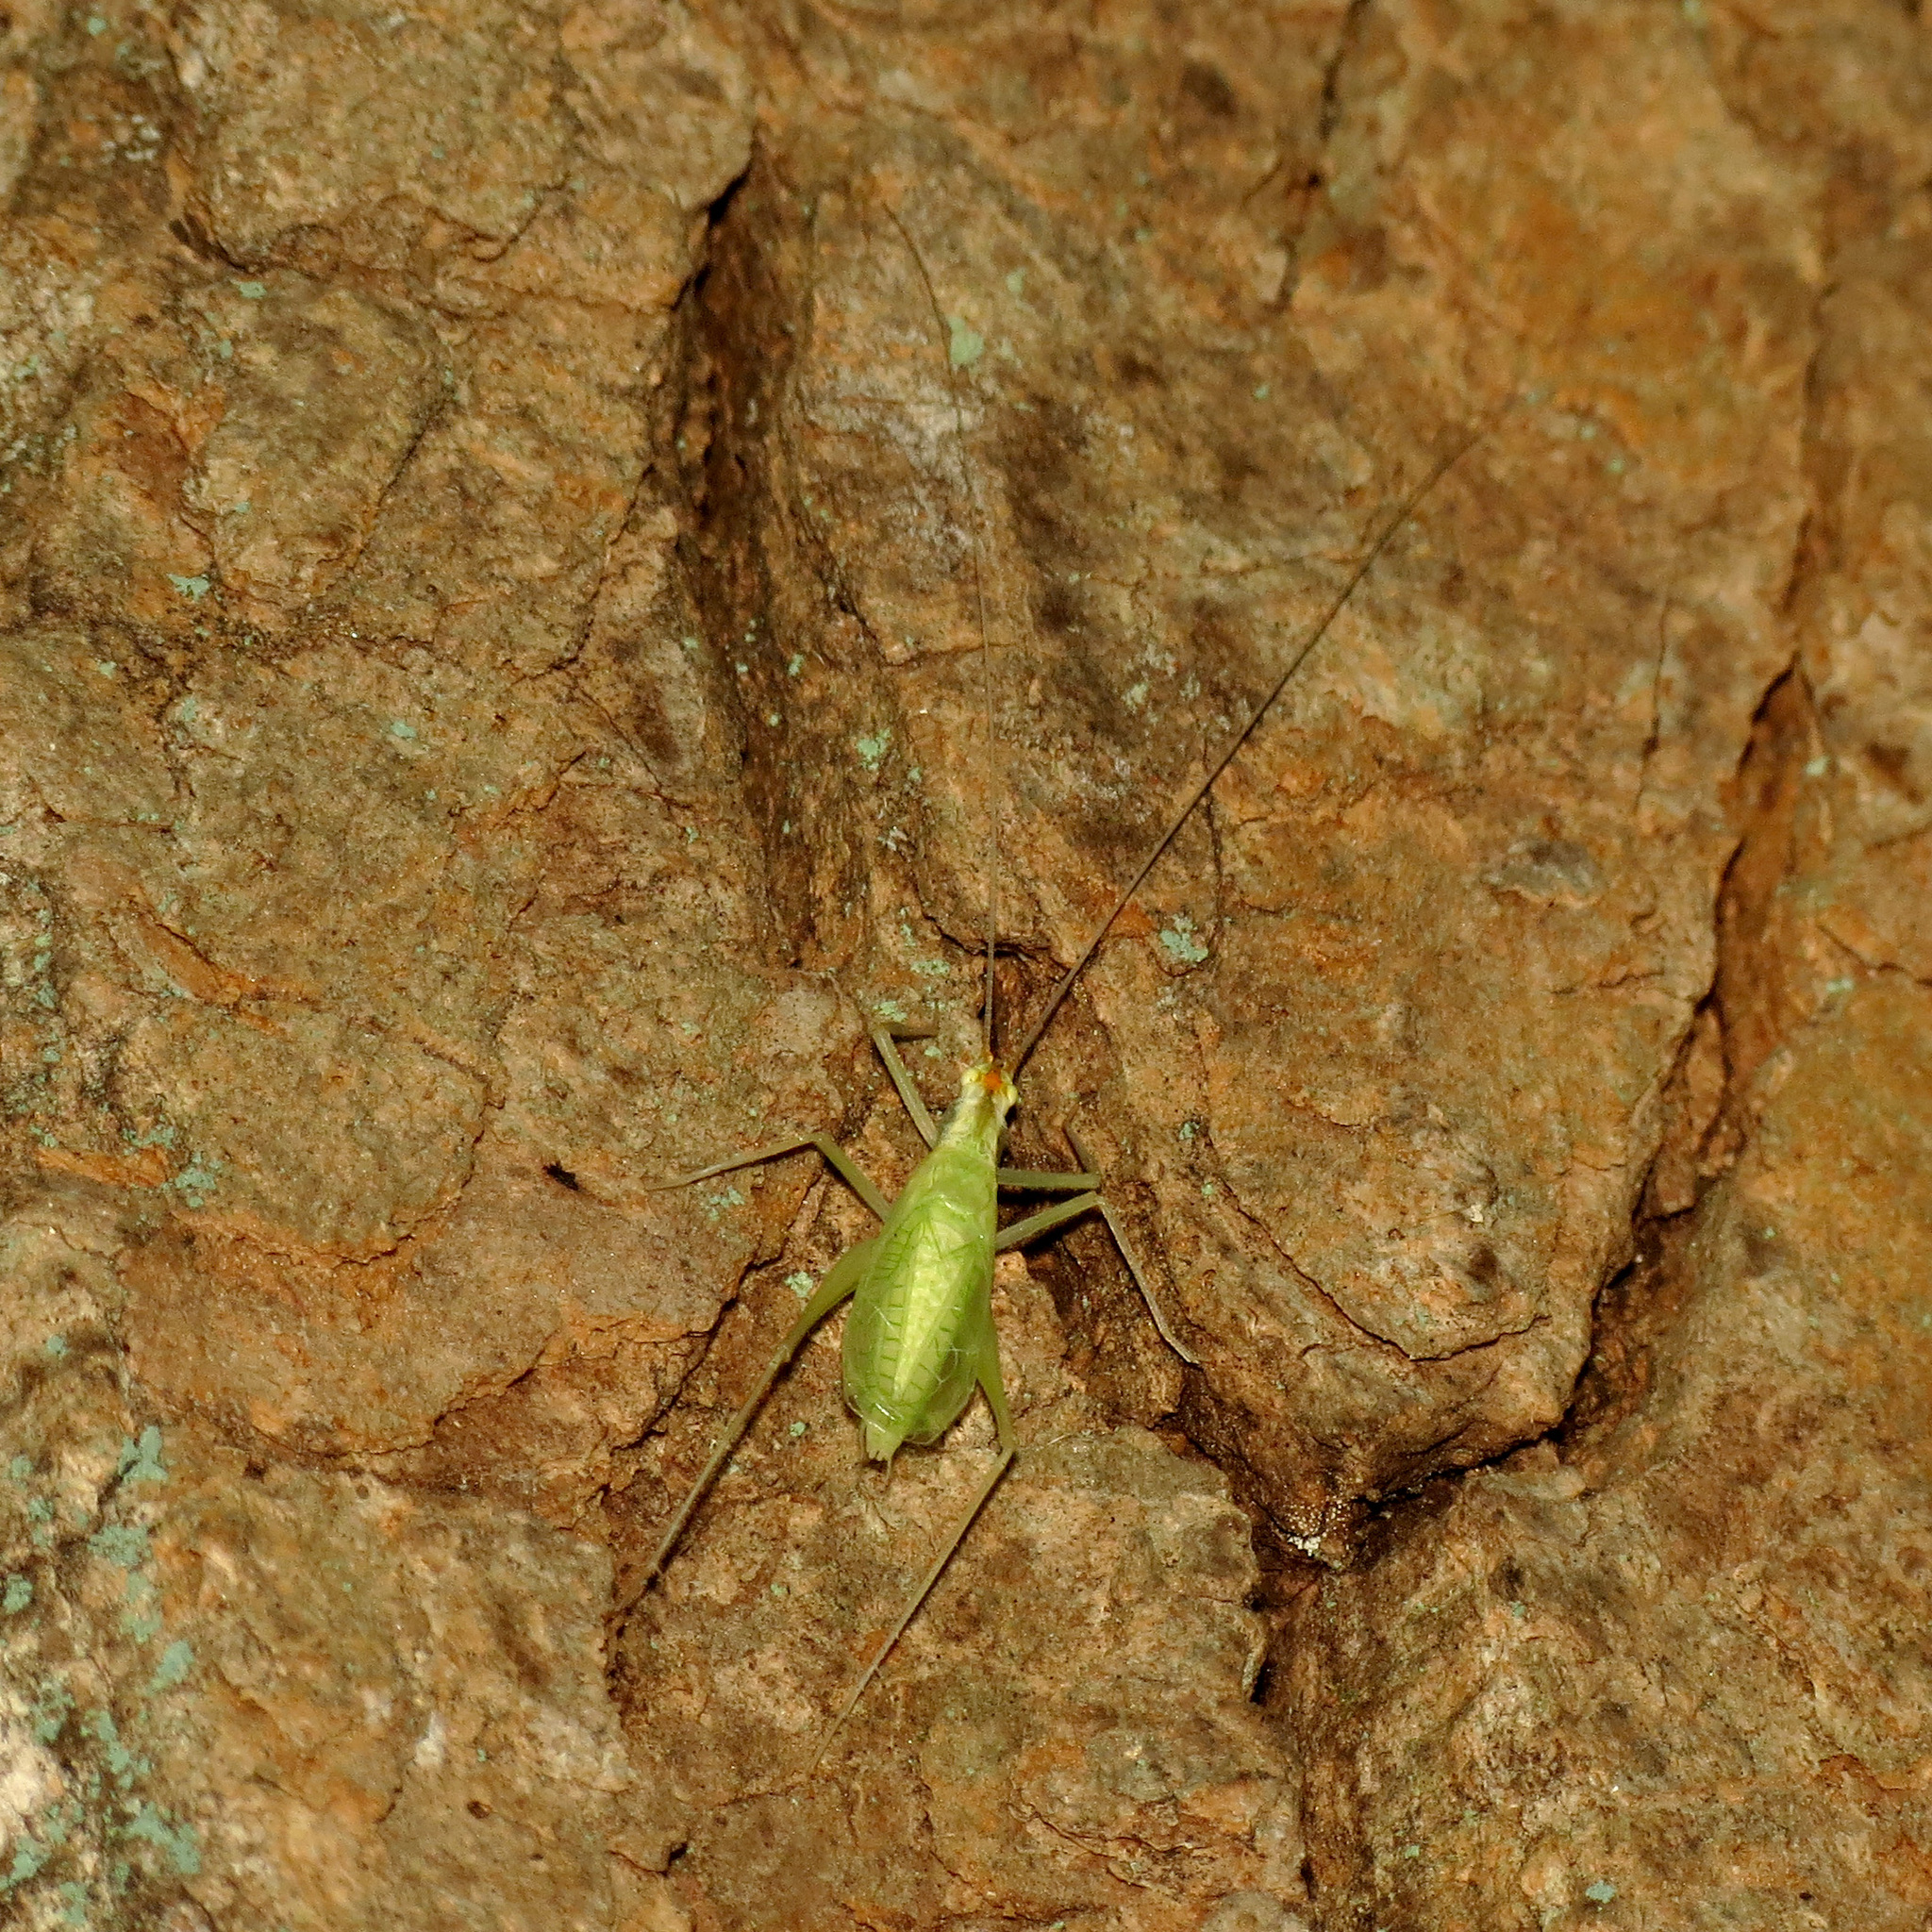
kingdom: Animalia
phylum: Arthropoda
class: Insecta
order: Orthoptera
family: Gryllidae
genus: Oecanthus
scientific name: Oecanthus niveus
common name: Narrow-winged tree cricket
